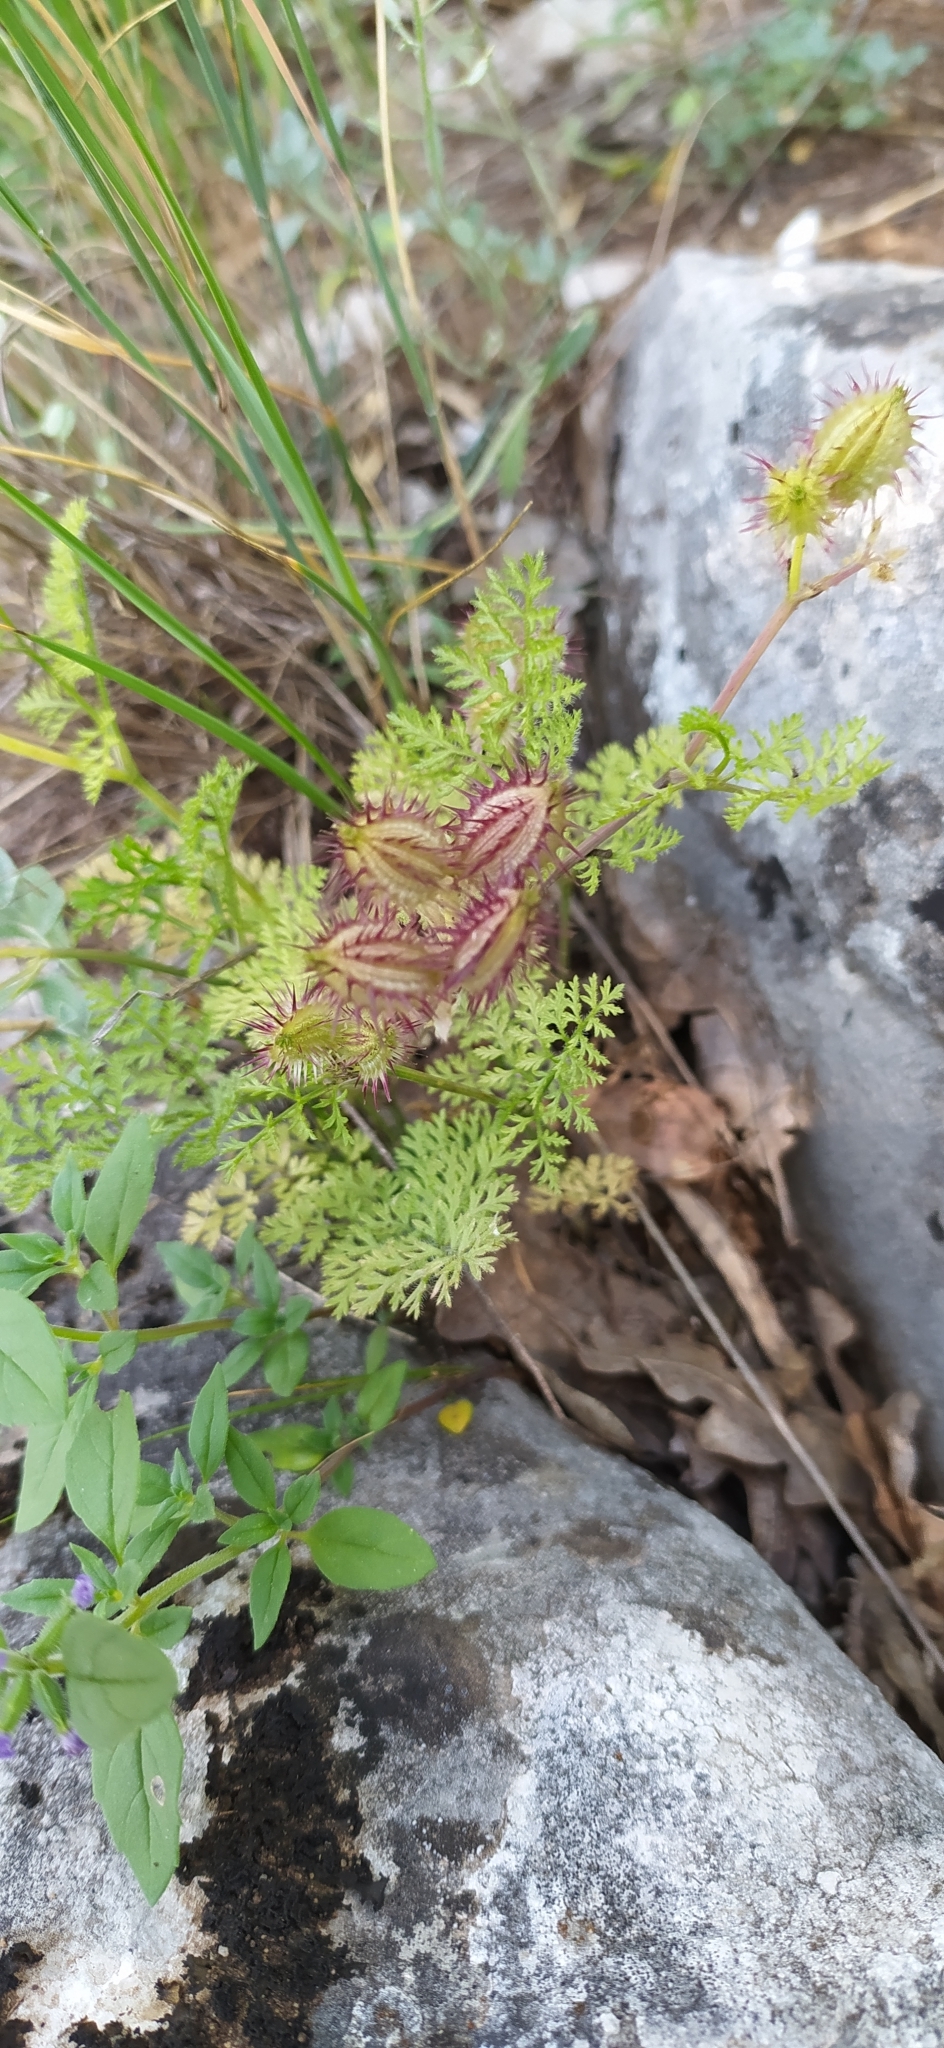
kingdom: Plantae
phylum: Tracheophyta
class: Magnoliopsida
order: Apiales
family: Apiaceae
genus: Orlaya
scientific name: Orlaya daucoides
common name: Flat-fruit orlaya
